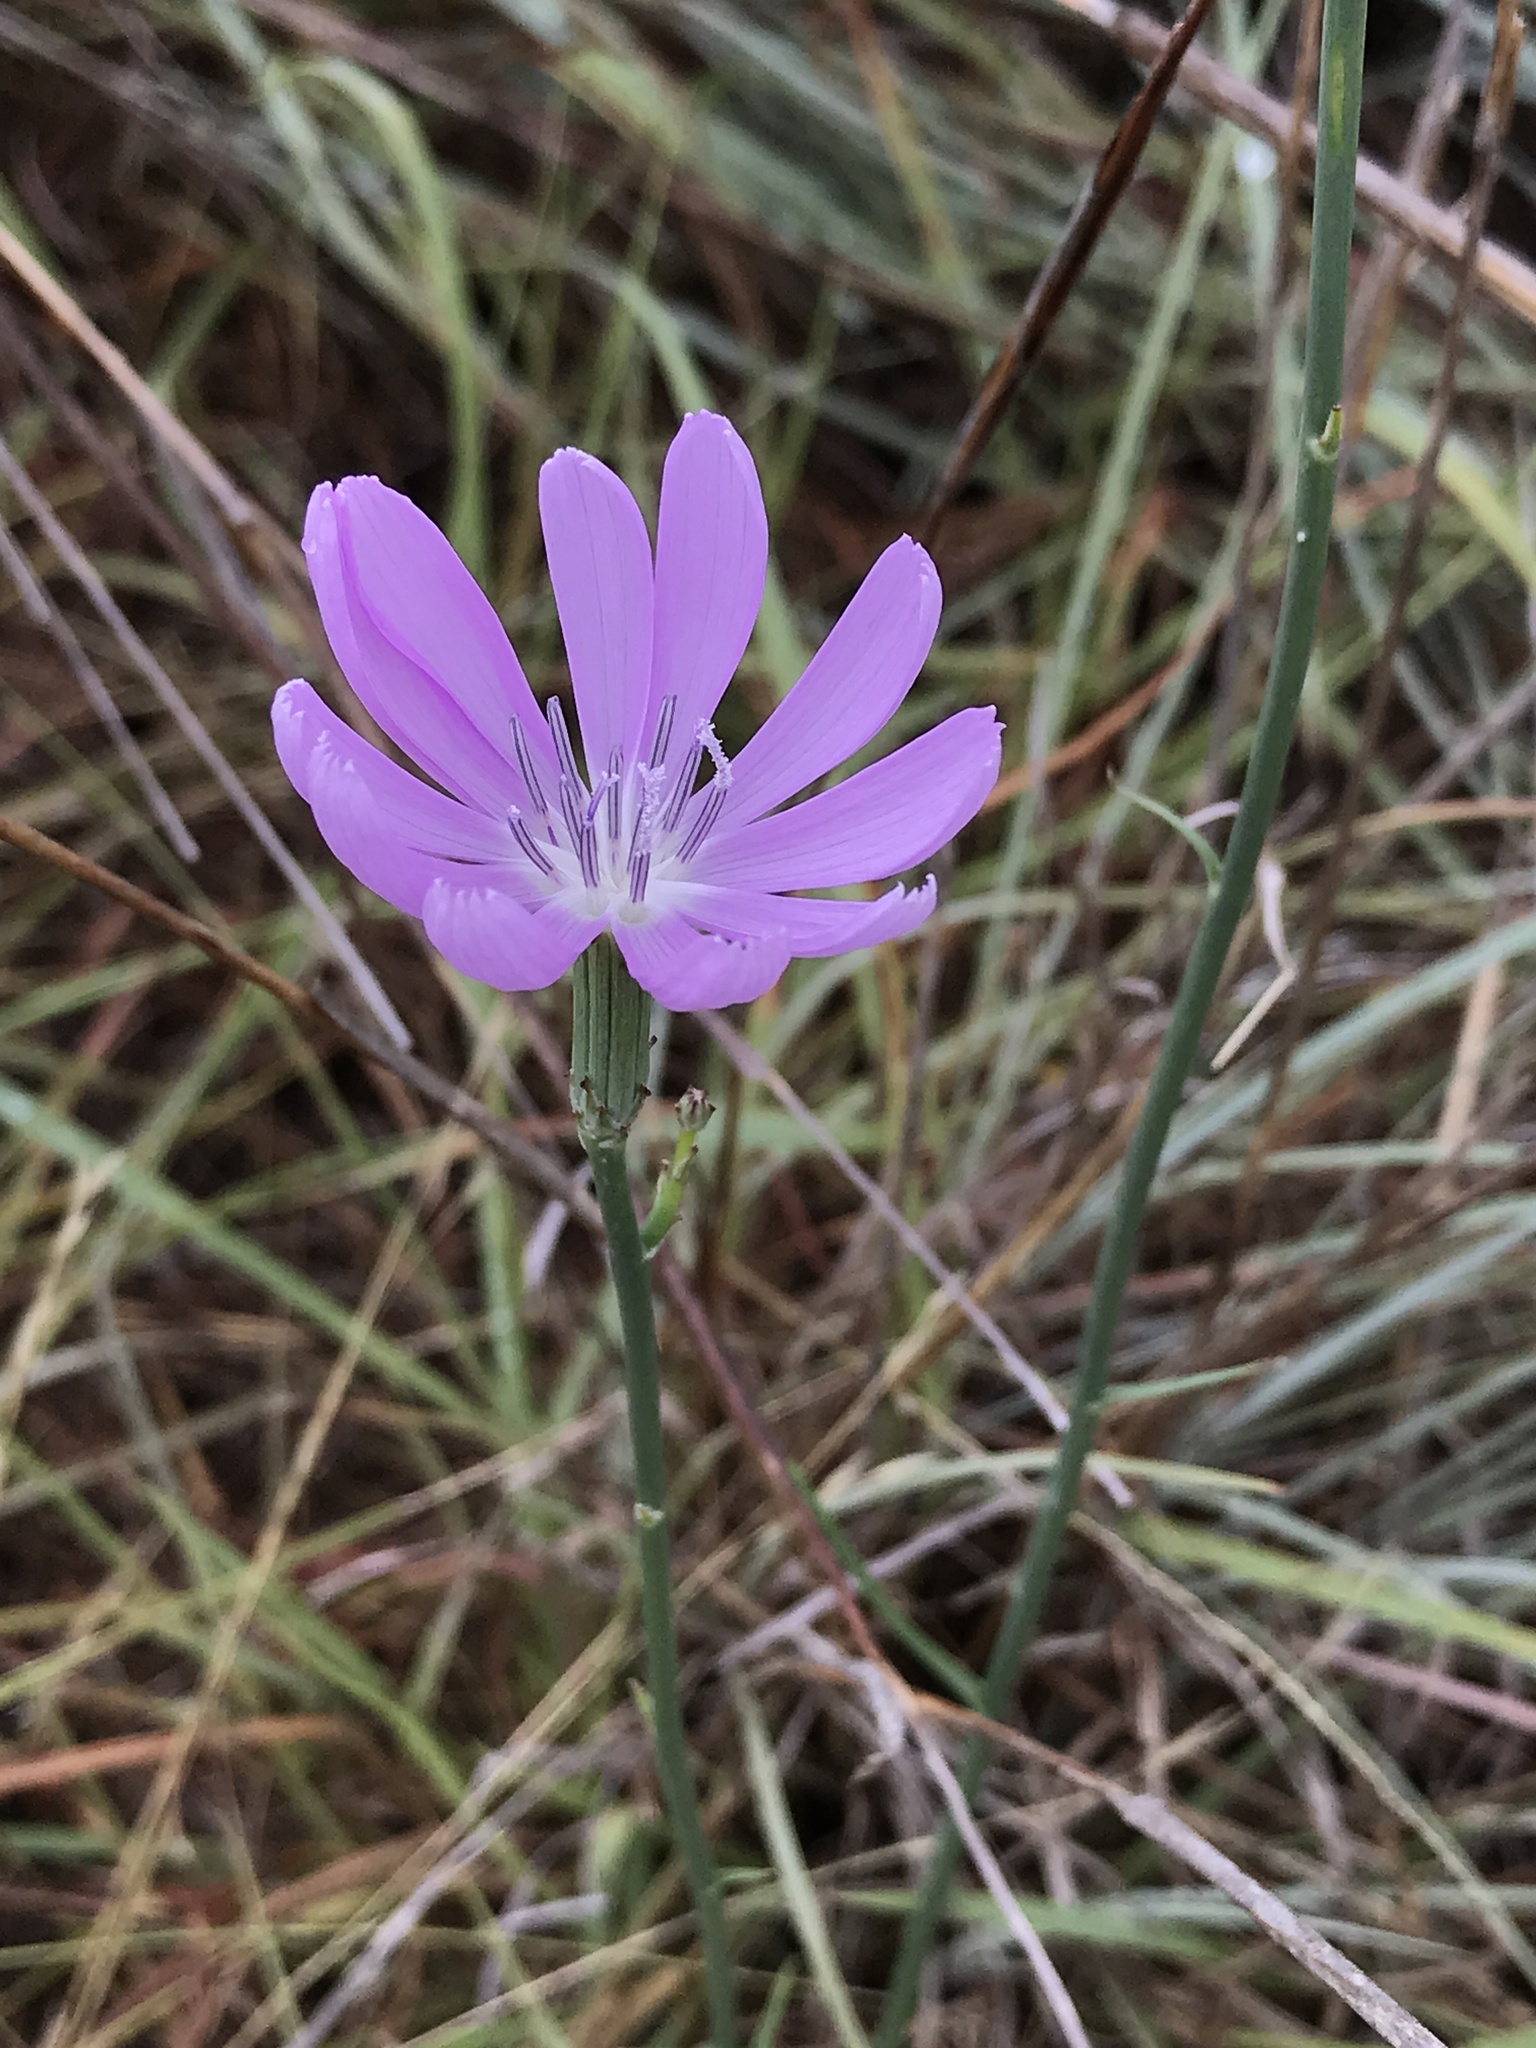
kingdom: Plantae
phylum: Tracheophyta
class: Magnoliopsida
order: Asterales
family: Asteraceae
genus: Lygodesmia
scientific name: Lygodesmia texana
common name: Texas skeleton-plant
